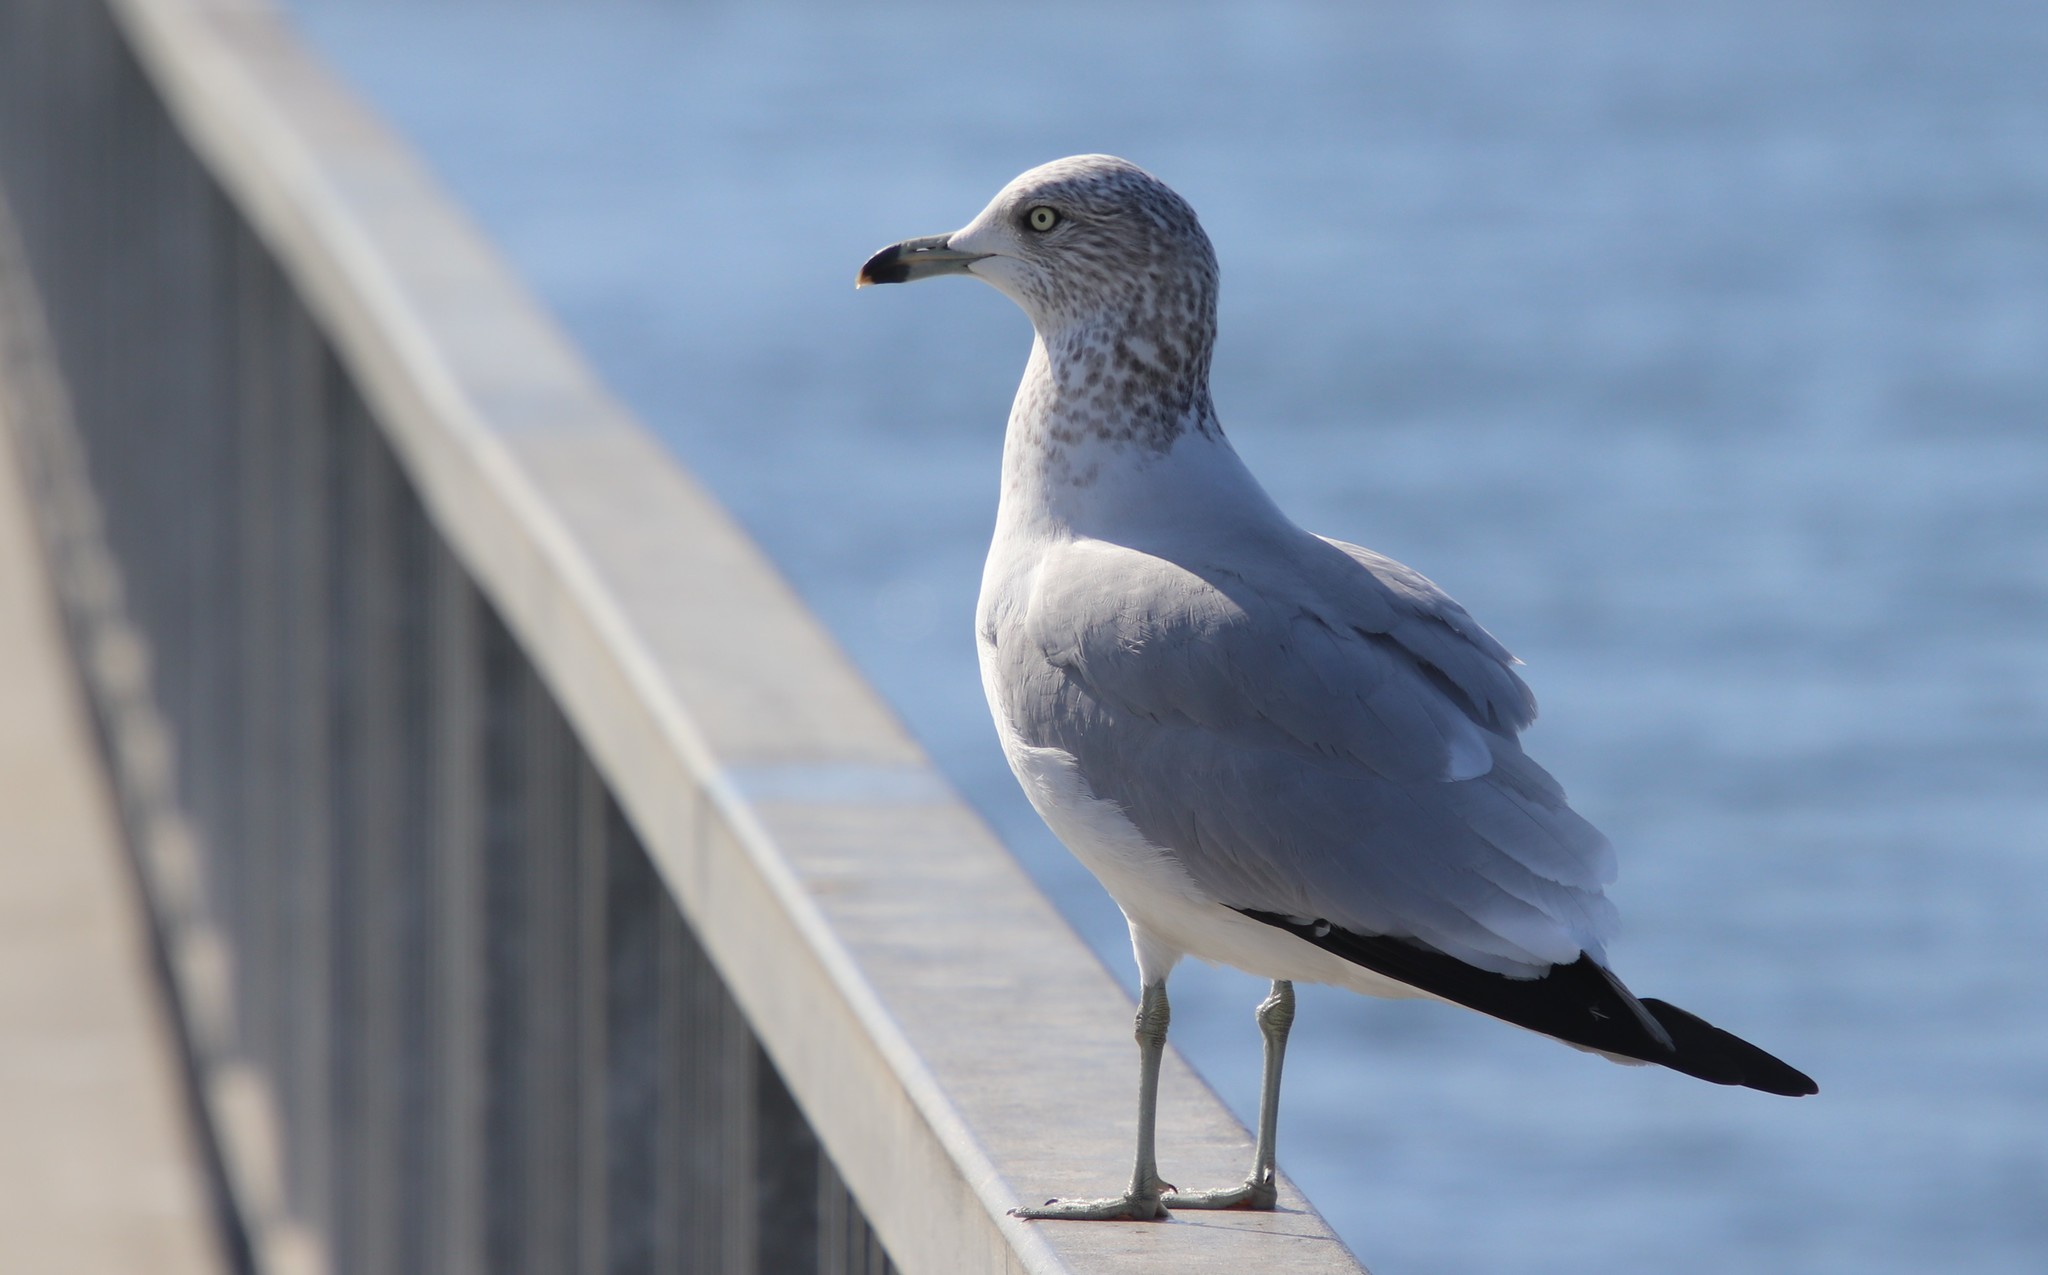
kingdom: Animalia
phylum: Chordata
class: Aves
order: Charadriiformes
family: Laridae
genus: Larus
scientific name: Larus delawarensis
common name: Ring-billed gull
